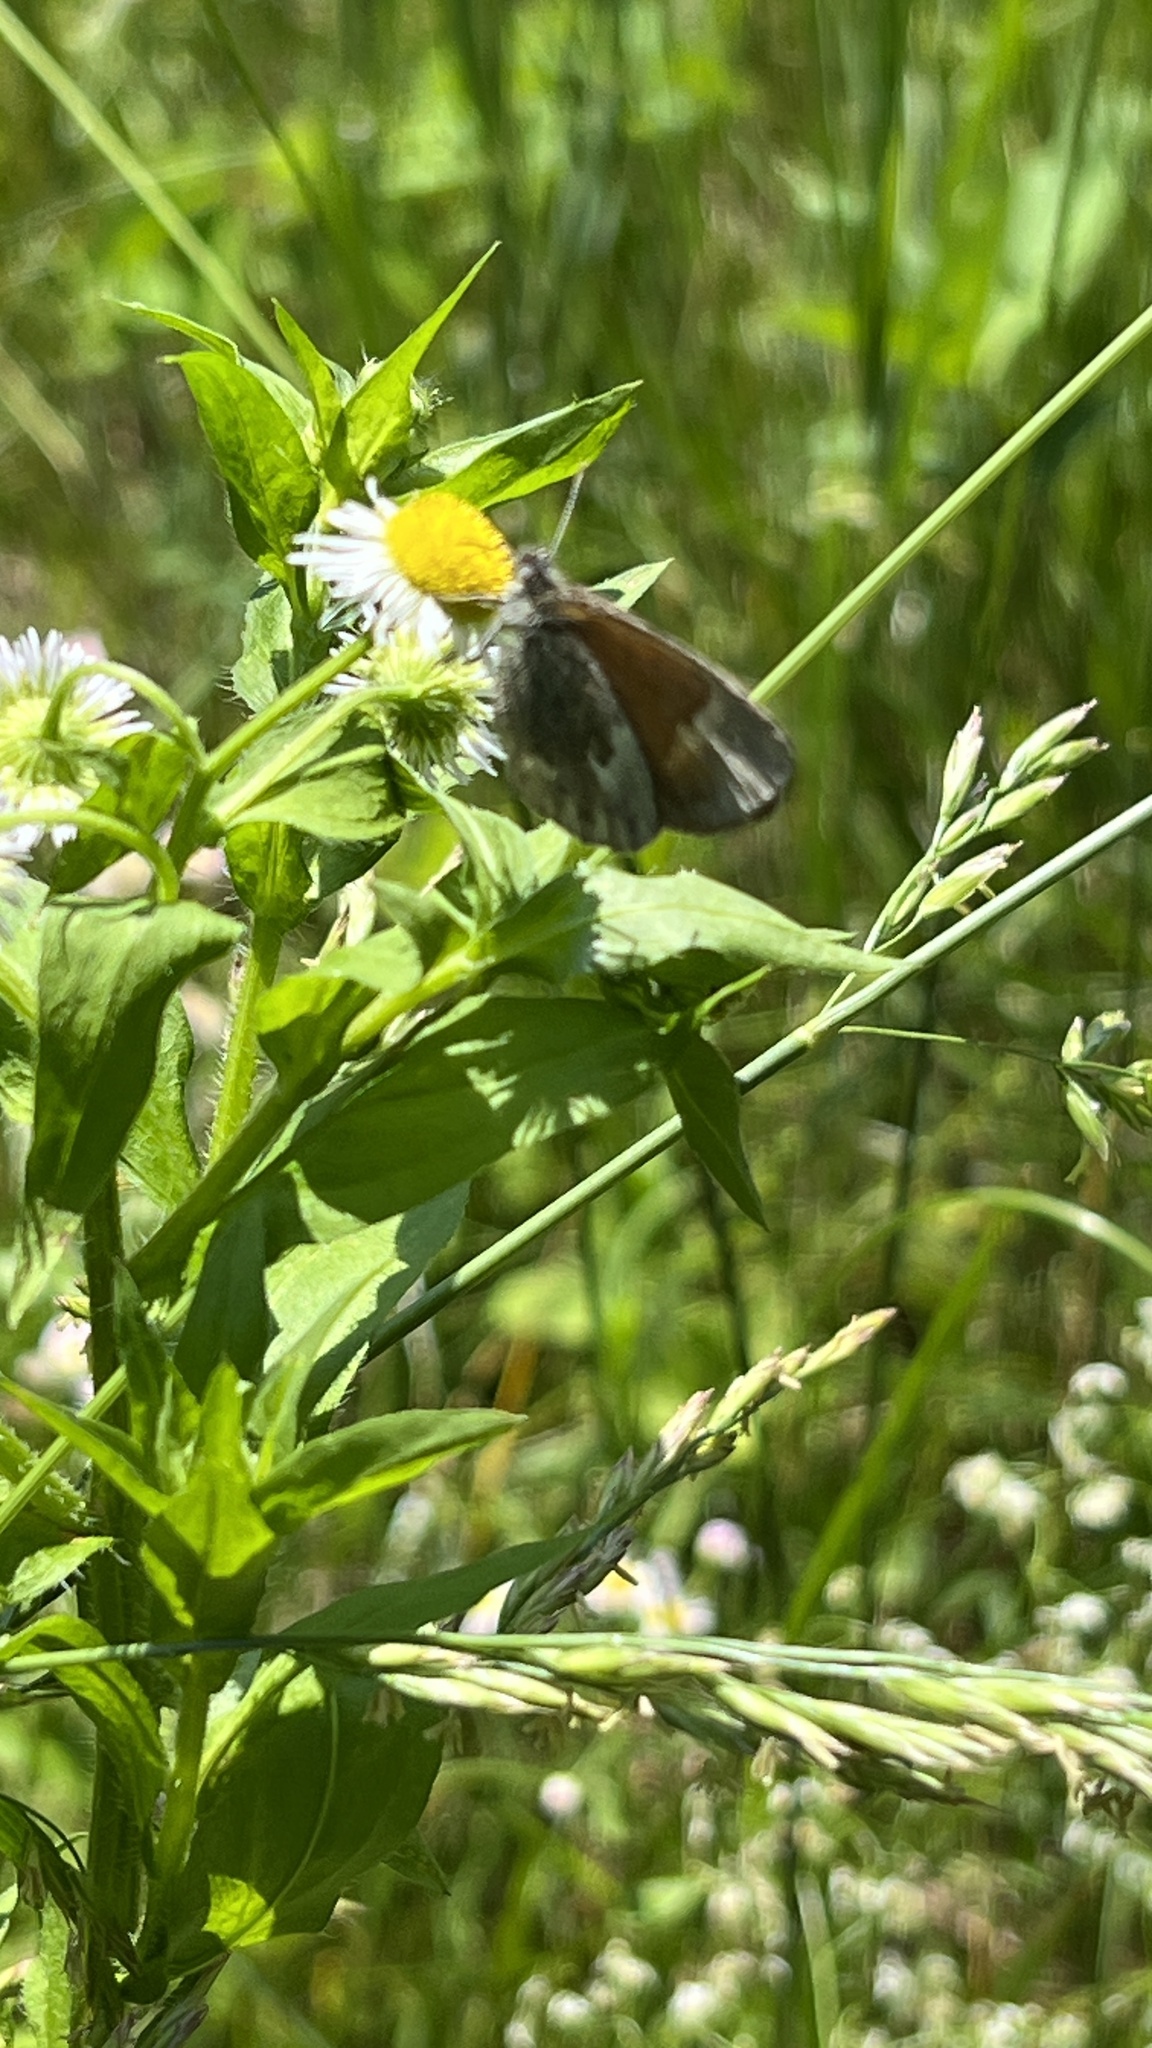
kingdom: Plantae
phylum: Tracheophyta
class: Magnoliopsida
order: Asterales
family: Asteraceae
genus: Erigeron
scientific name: Erigeron annuus
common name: Tall fleabane
